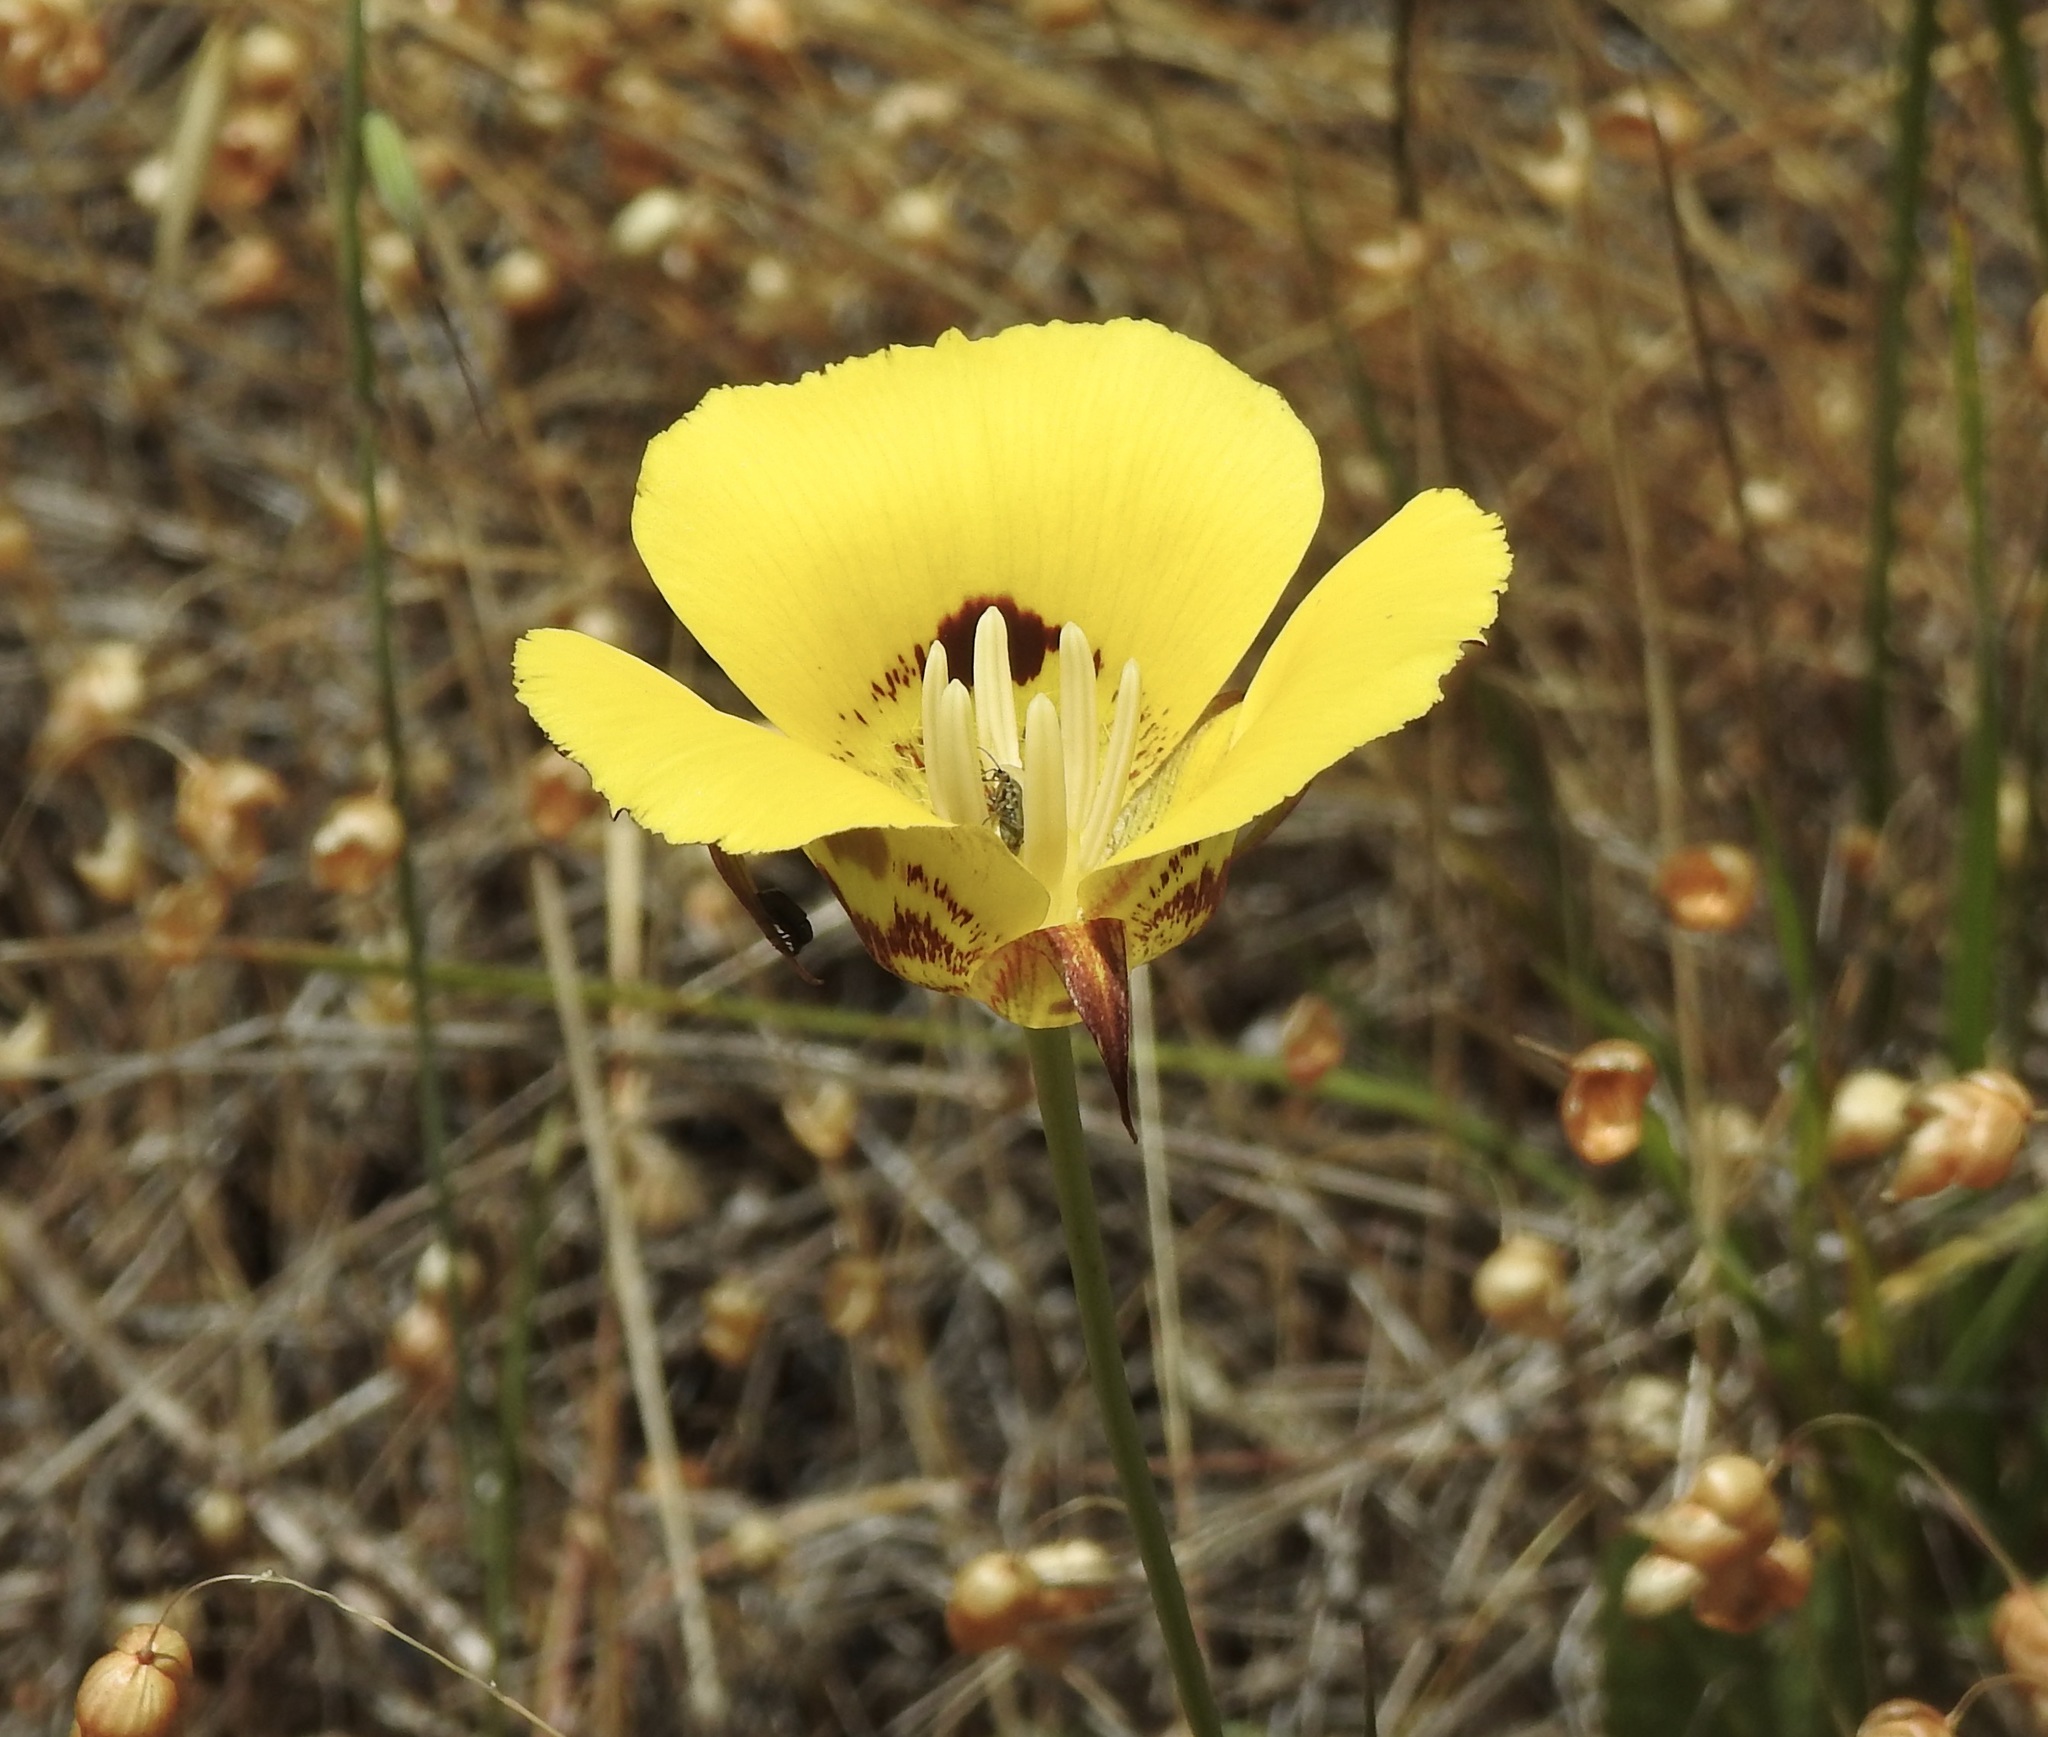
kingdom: Plantae
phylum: Tracheophyta
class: Liliopsida
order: Liliales
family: Liliaceae
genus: Calochortus
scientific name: Calochortus luteus
